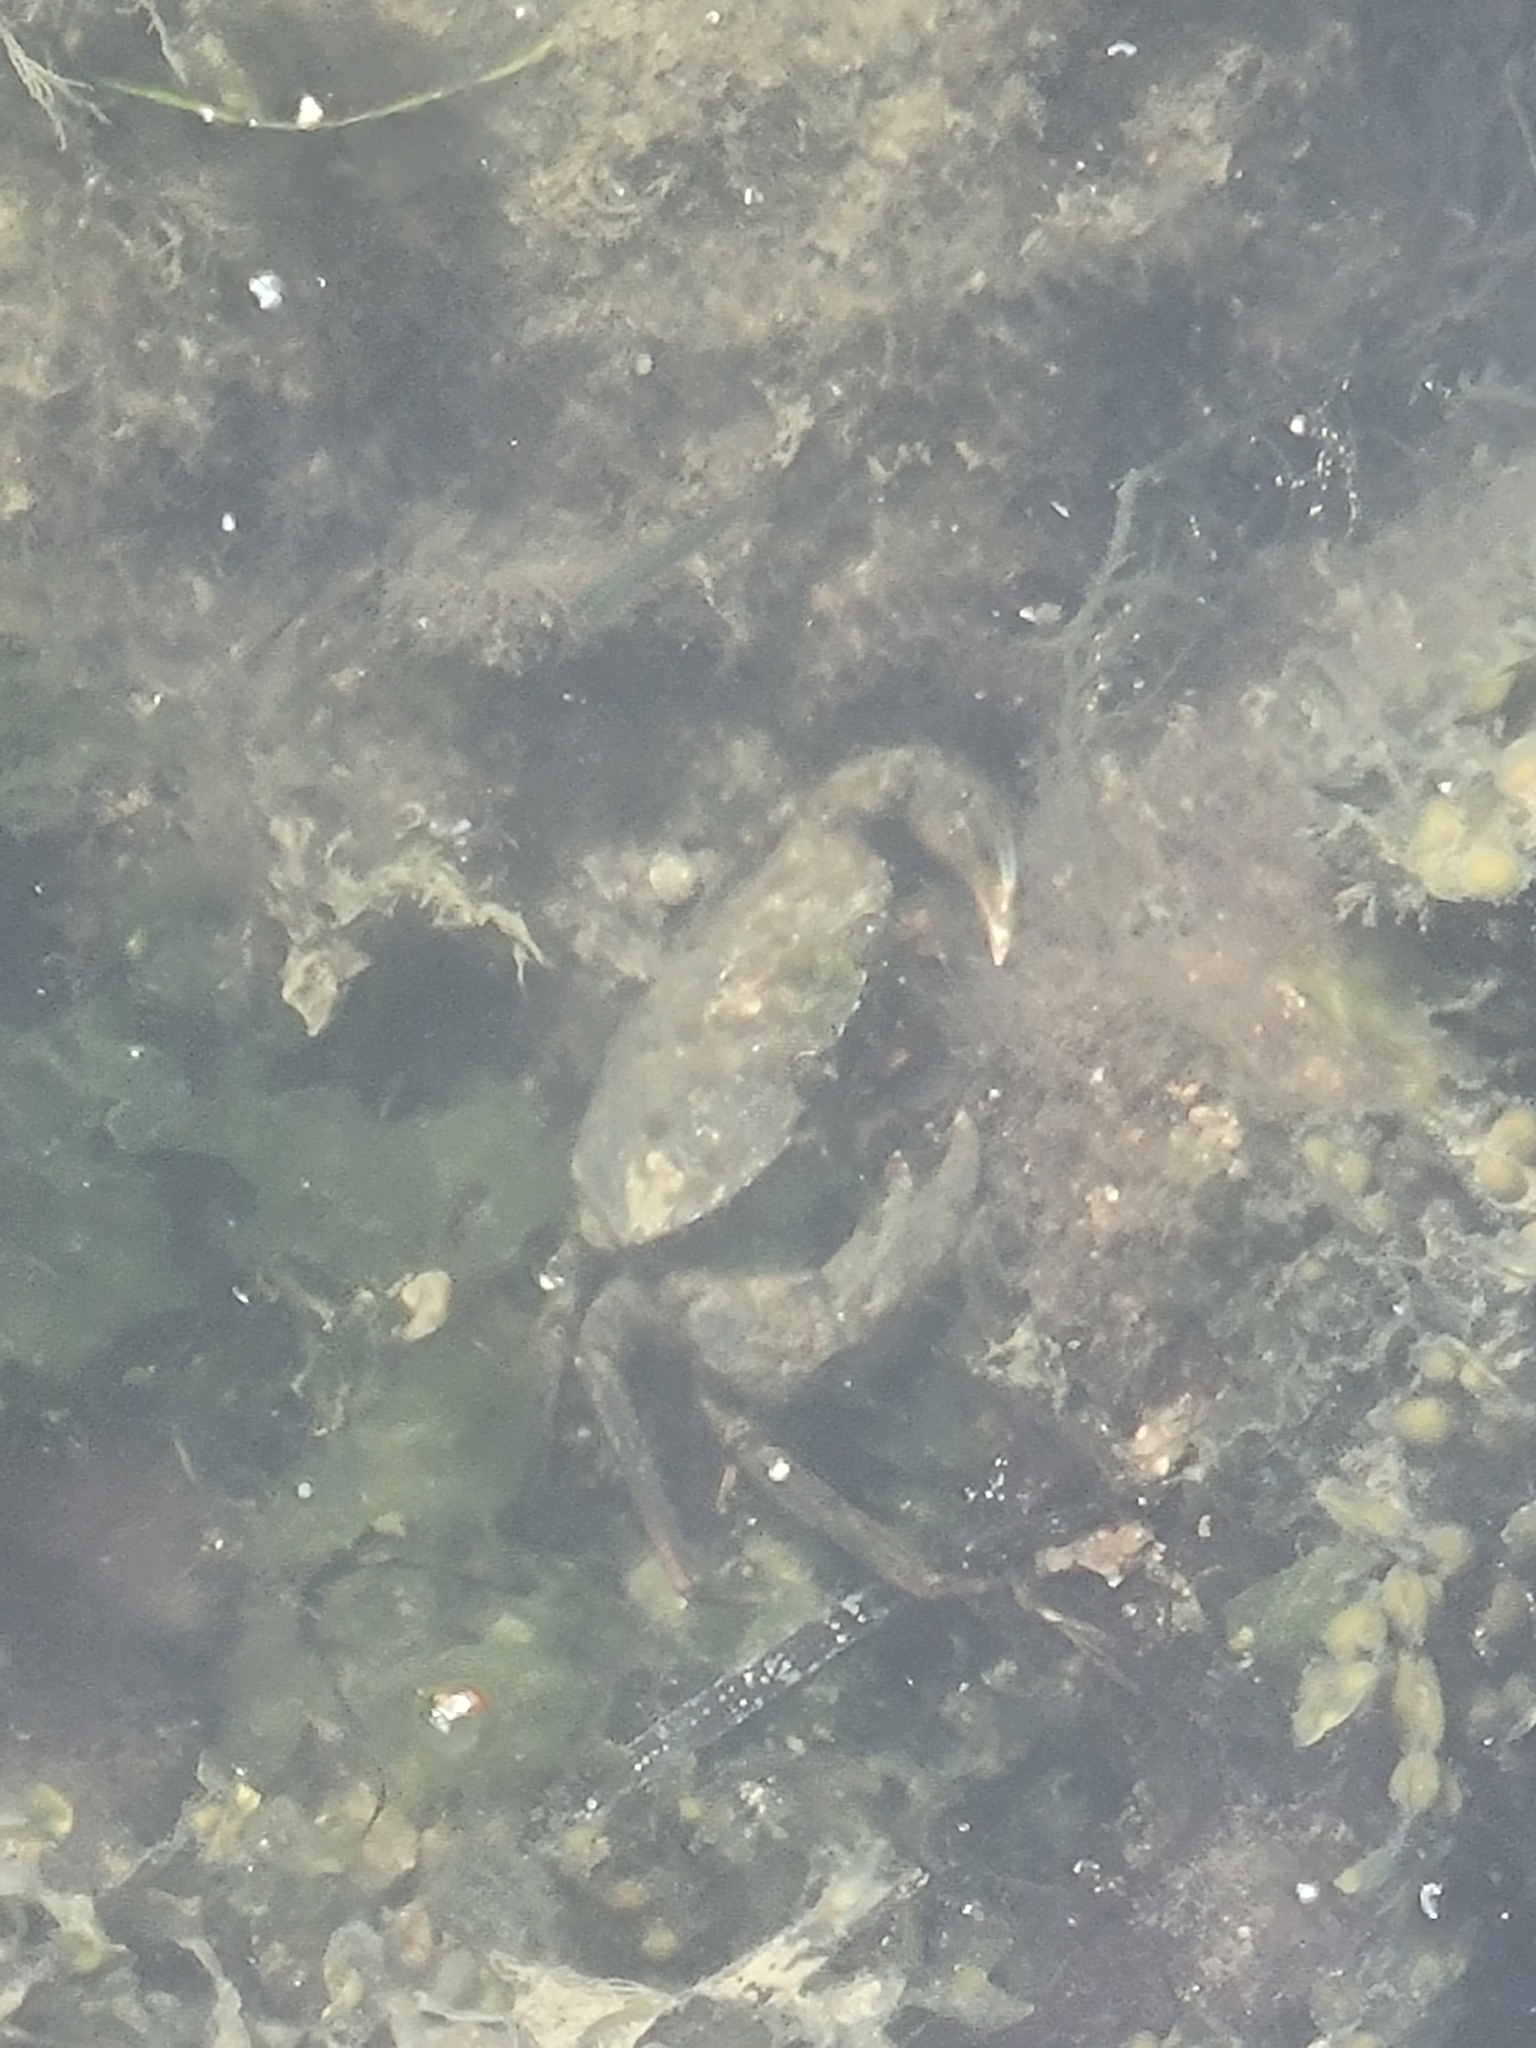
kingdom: Animalia
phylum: Arthropoda
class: Malacostraca
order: Decapoda
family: Carcinidae
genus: Carcinus
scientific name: Carcinus maenas
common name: European green crab
